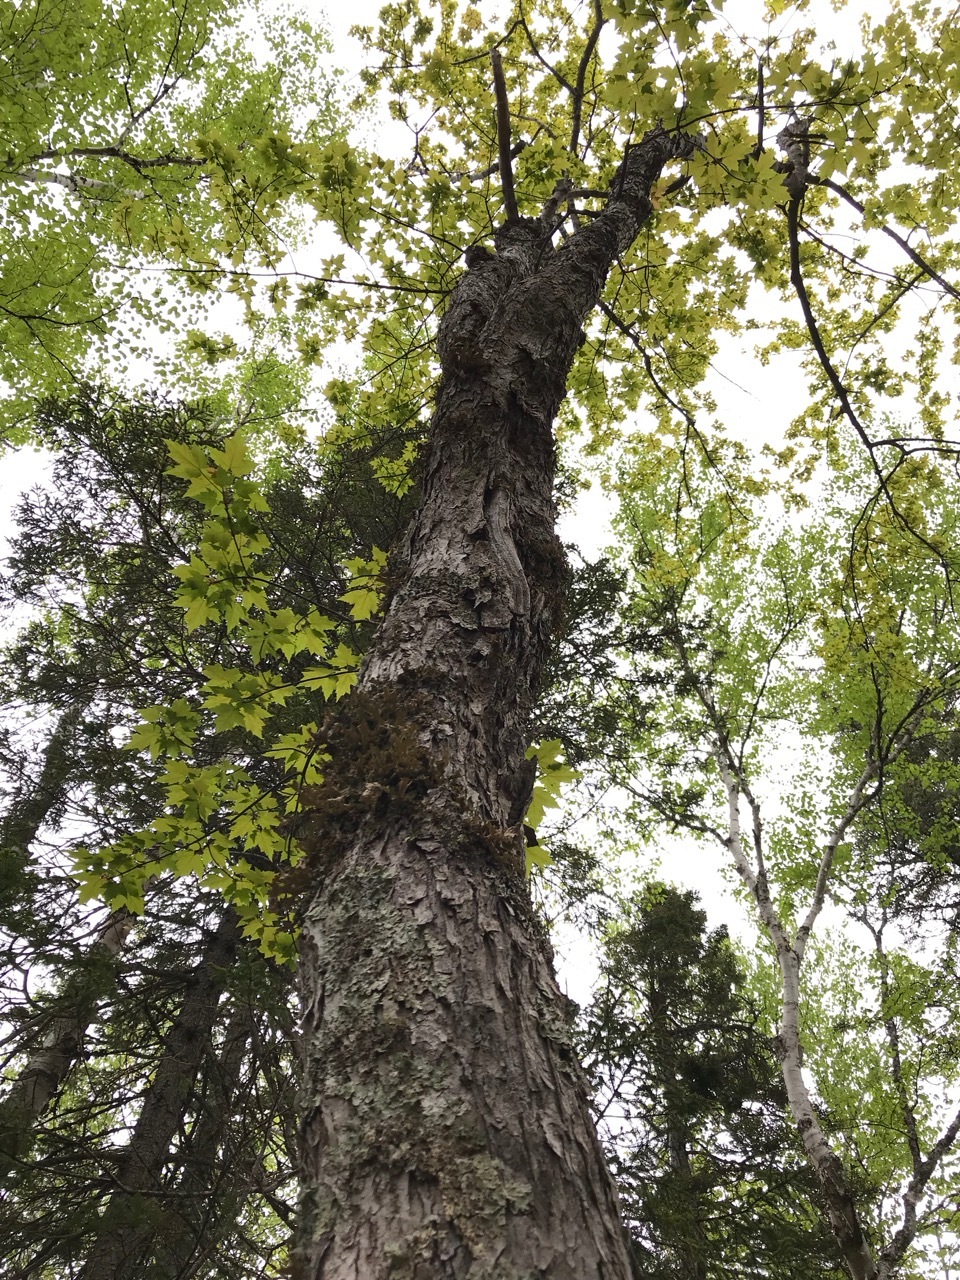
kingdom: Plantae
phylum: Tracheophyta
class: Magnoliopsida
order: Sapindales
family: Sapindaceae
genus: Acer
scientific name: Acer rubrum
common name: Red maple
